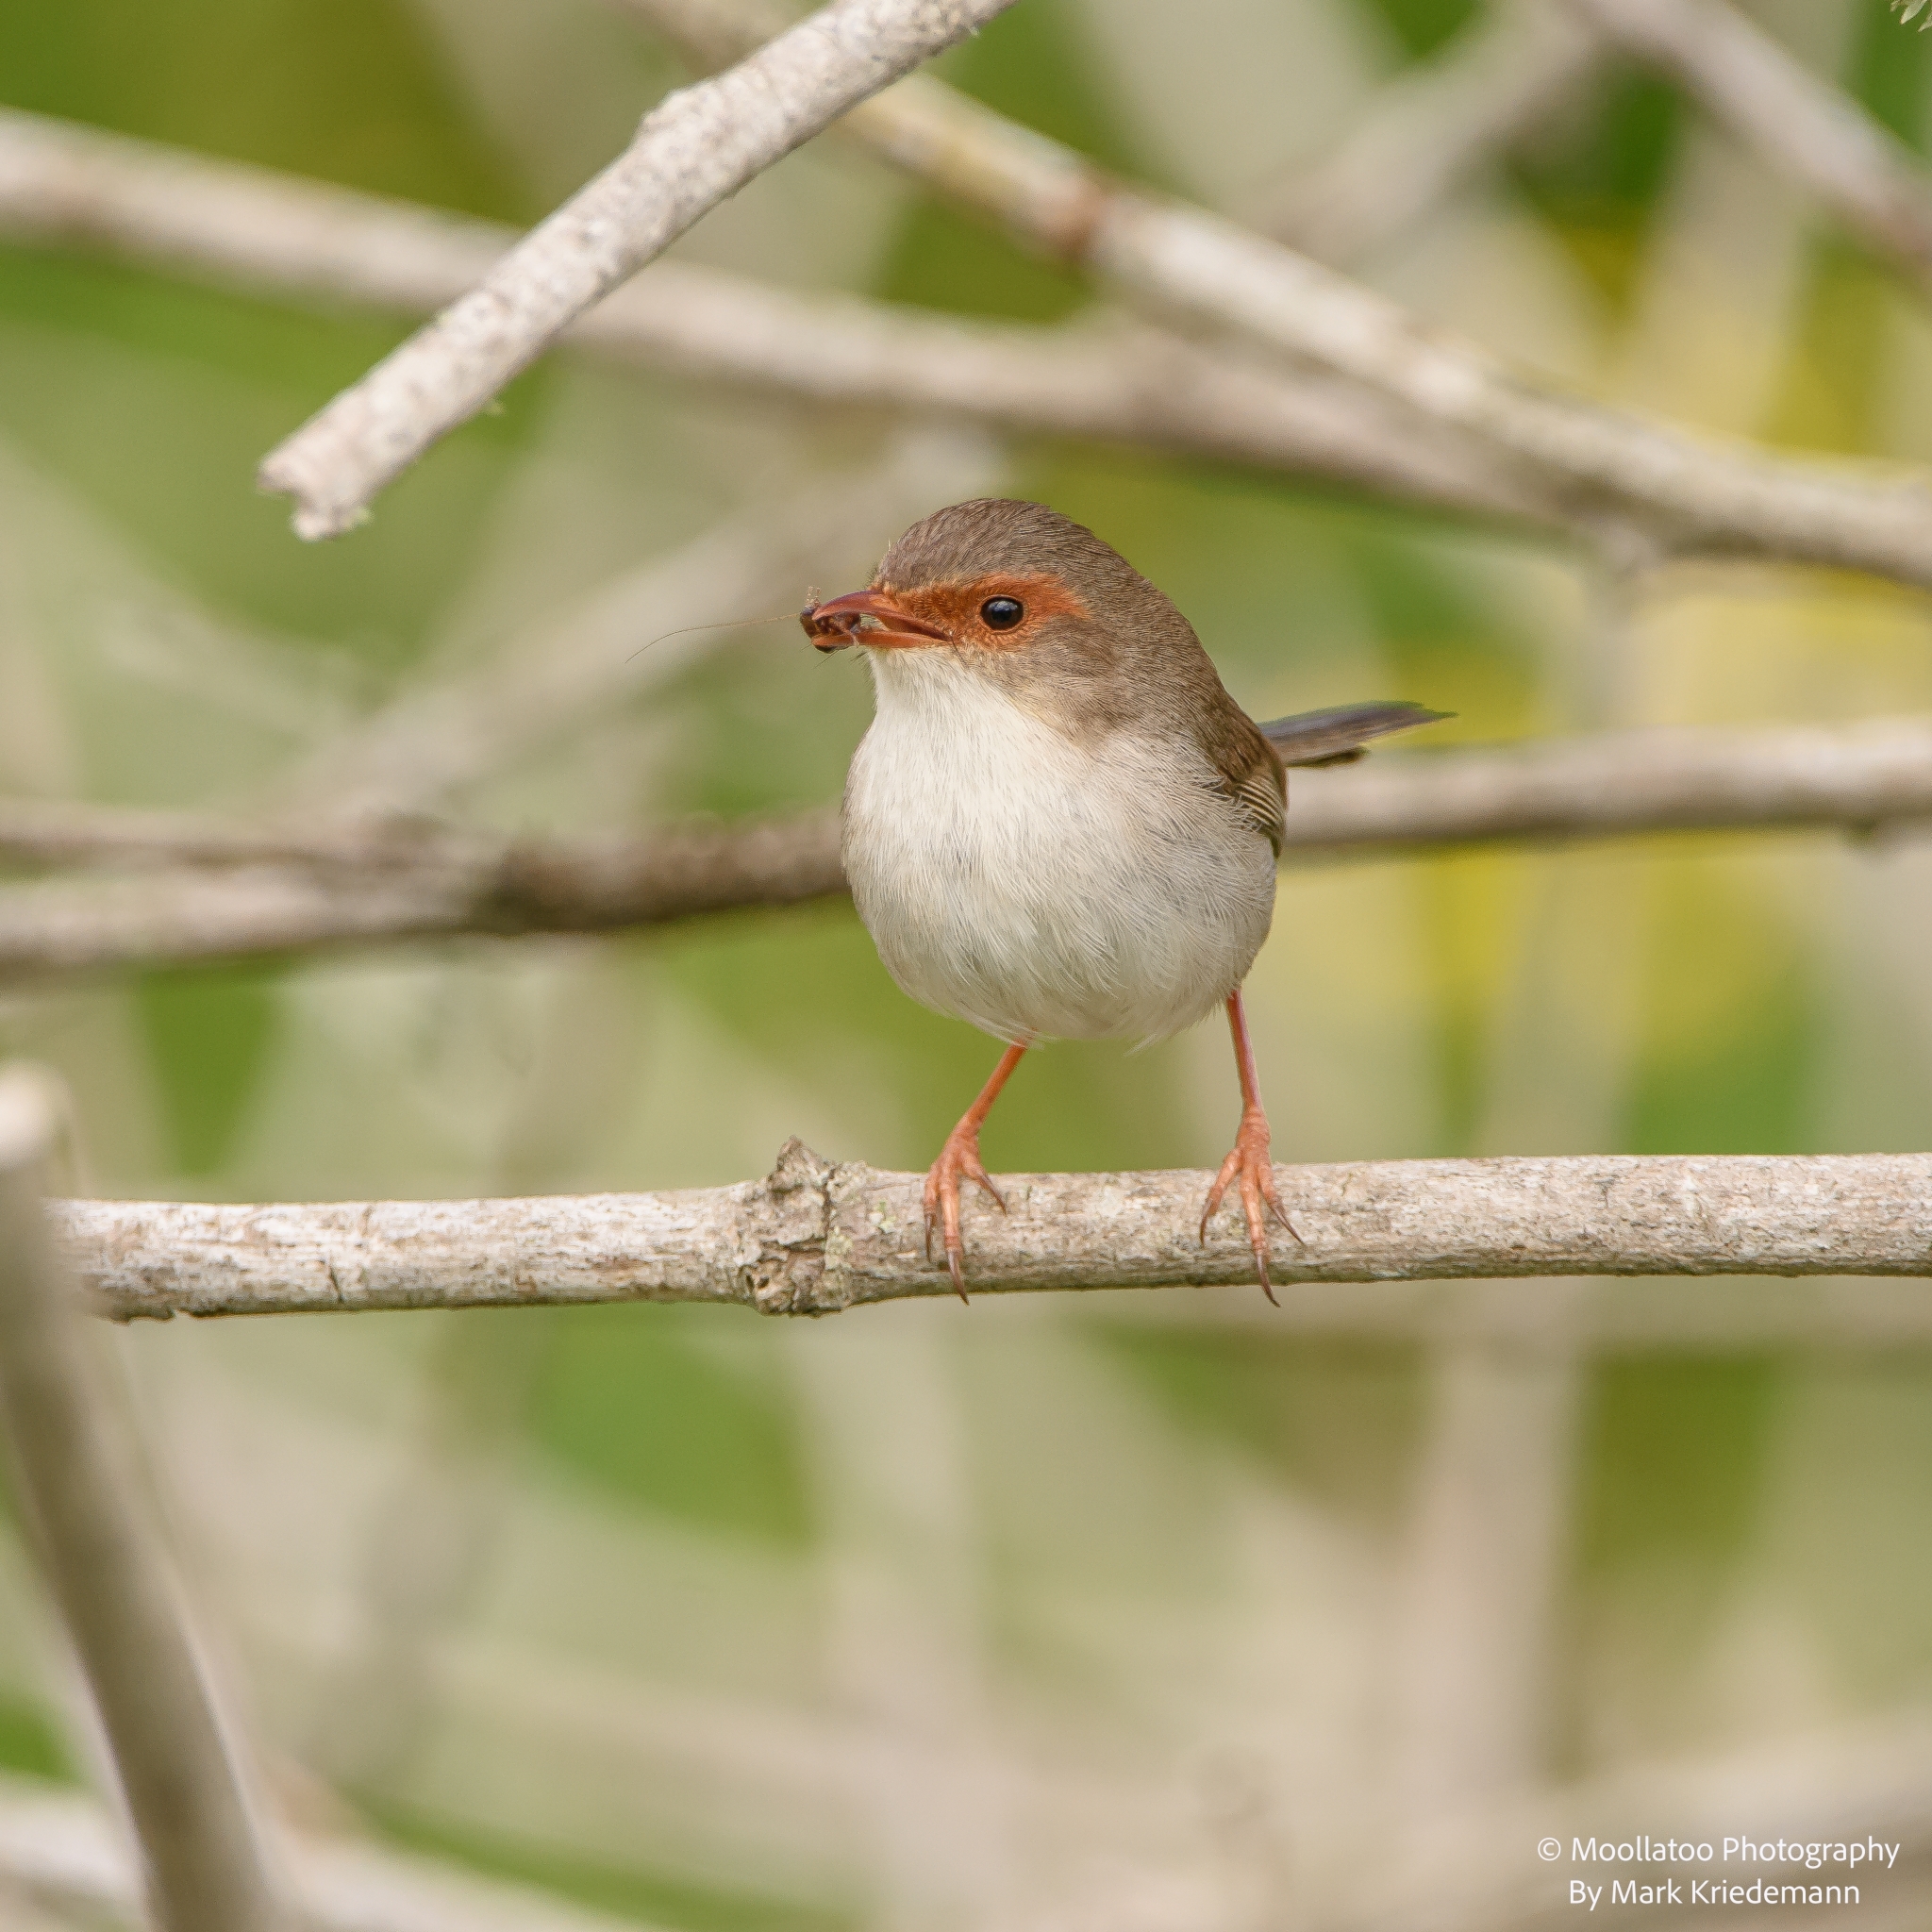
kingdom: Animalia
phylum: Chordata
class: Aves
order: Passeriformes
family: Maluridae
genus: Malurus
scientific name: Malurus cyaneus
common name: Superb fairywren
